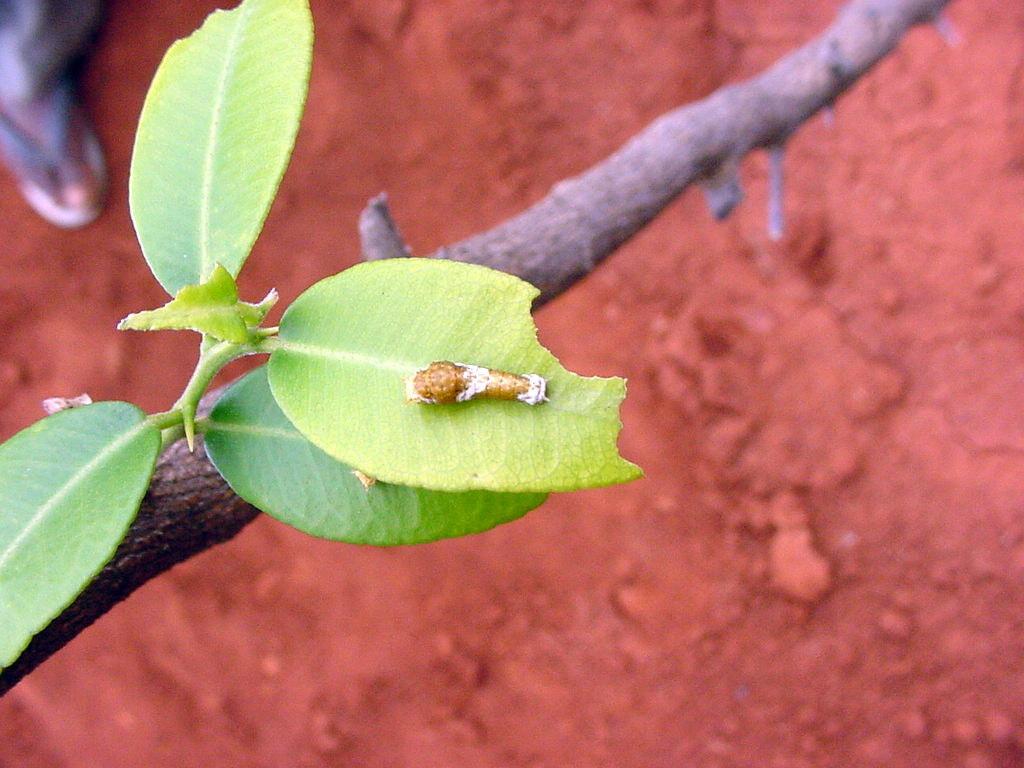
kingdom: Animalia
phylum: Arthropoda
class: Insecta
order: Lepidoptera
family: Papilionidae
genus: Papilio
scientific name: Papilio polytes
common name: Common mormon
